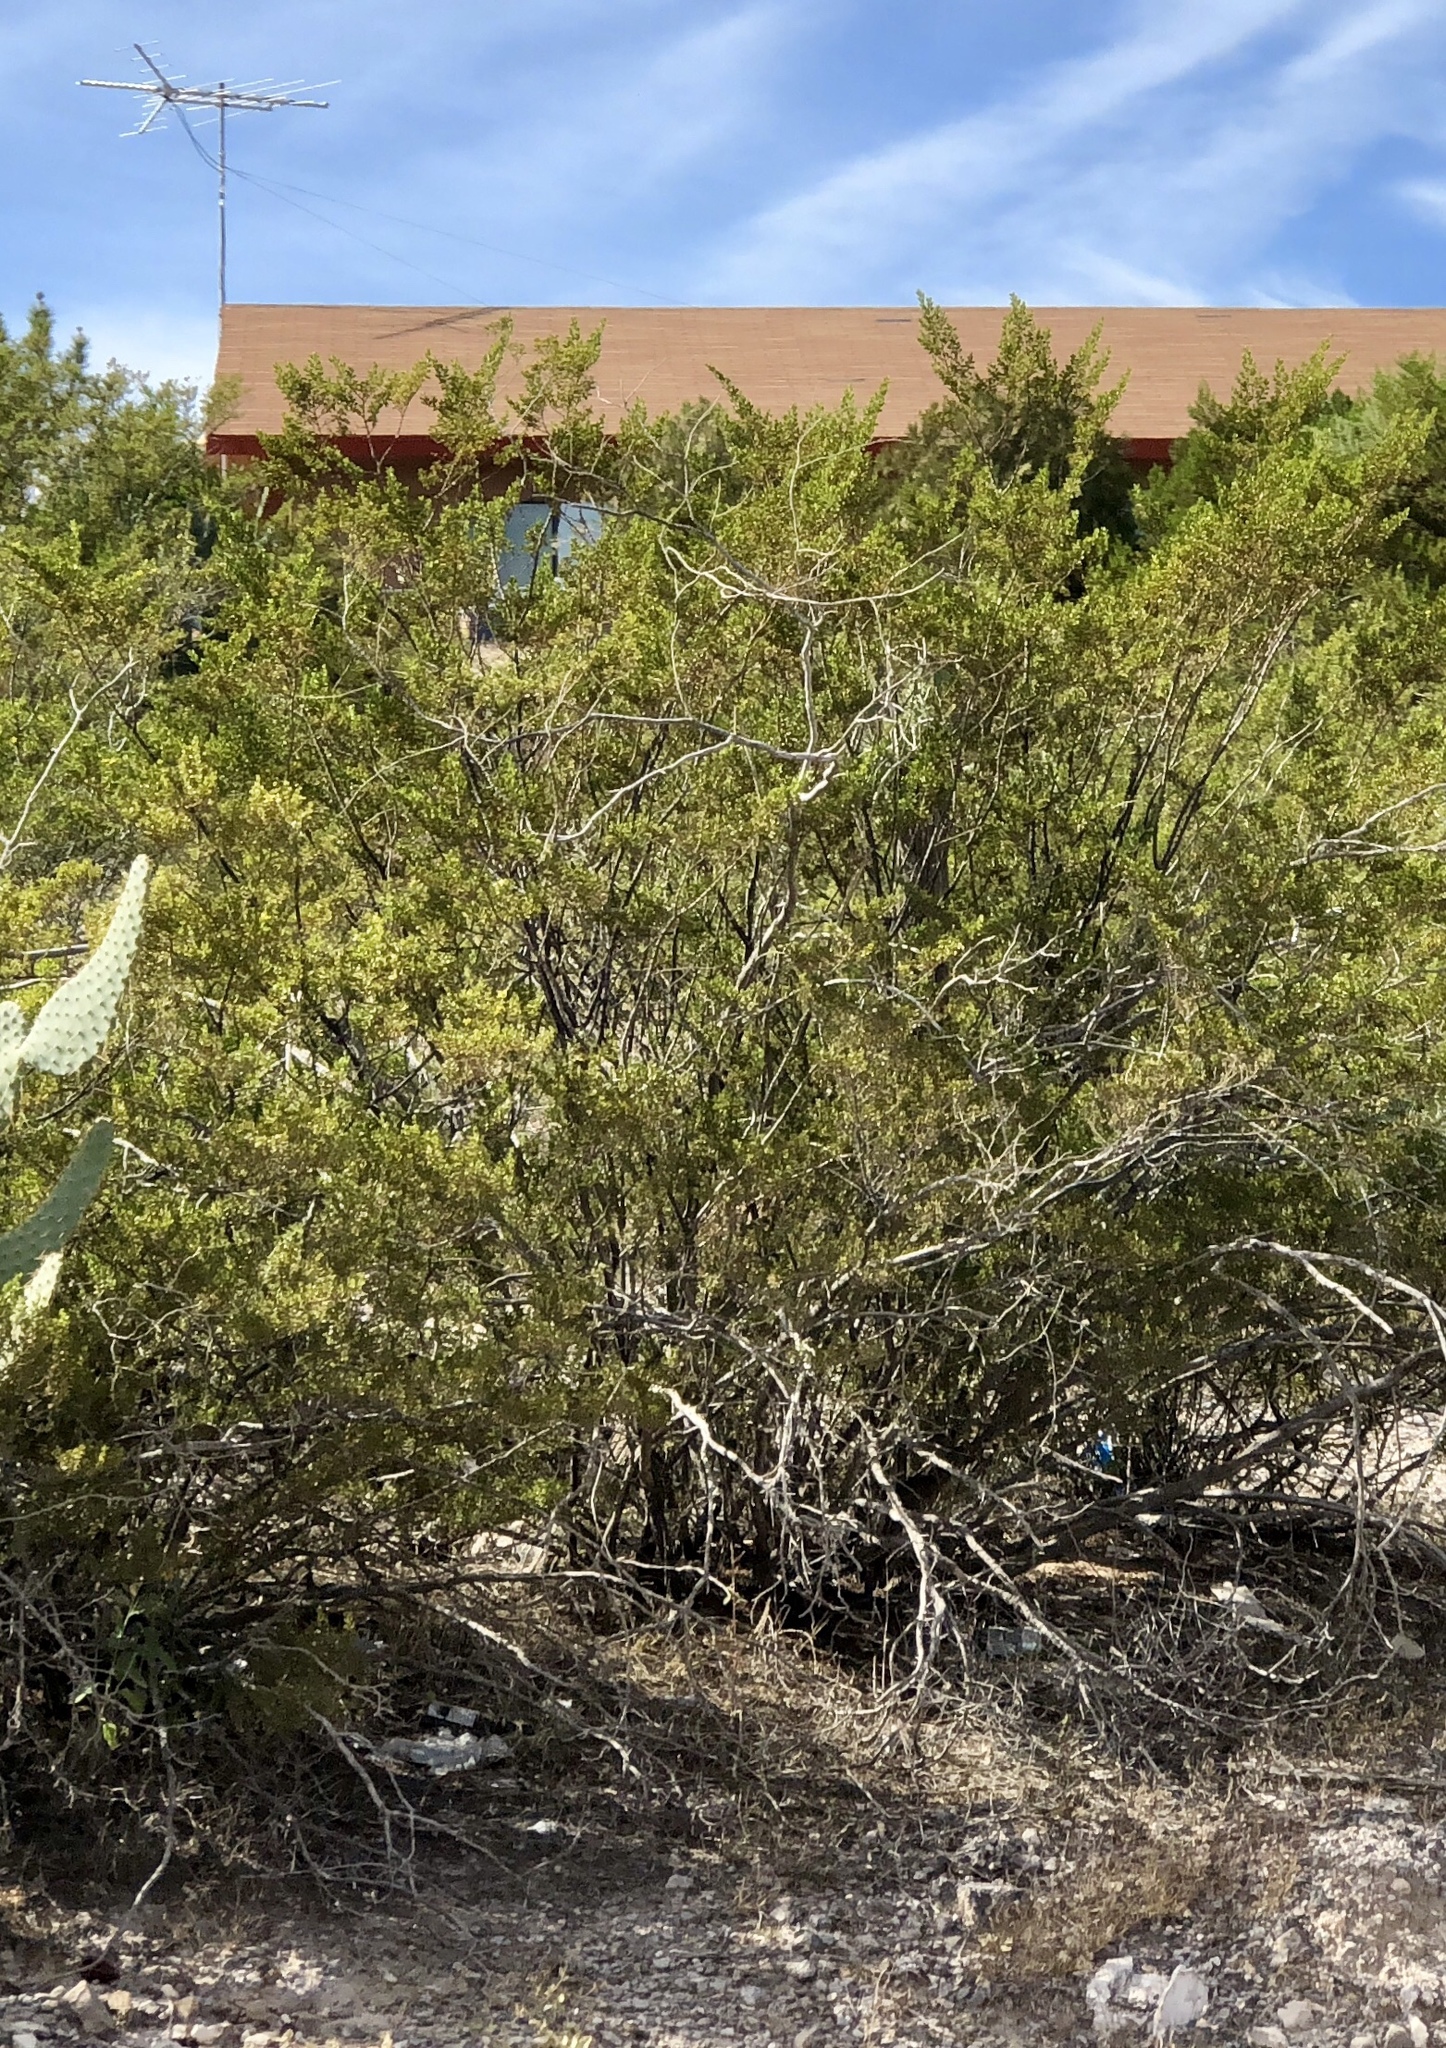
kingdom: Plantae
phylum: Tracheophyta
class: Magnoliopsida
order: Zygophyllales
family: Zygophyllaceae
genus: Larrea
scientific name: Larrea tridentata
